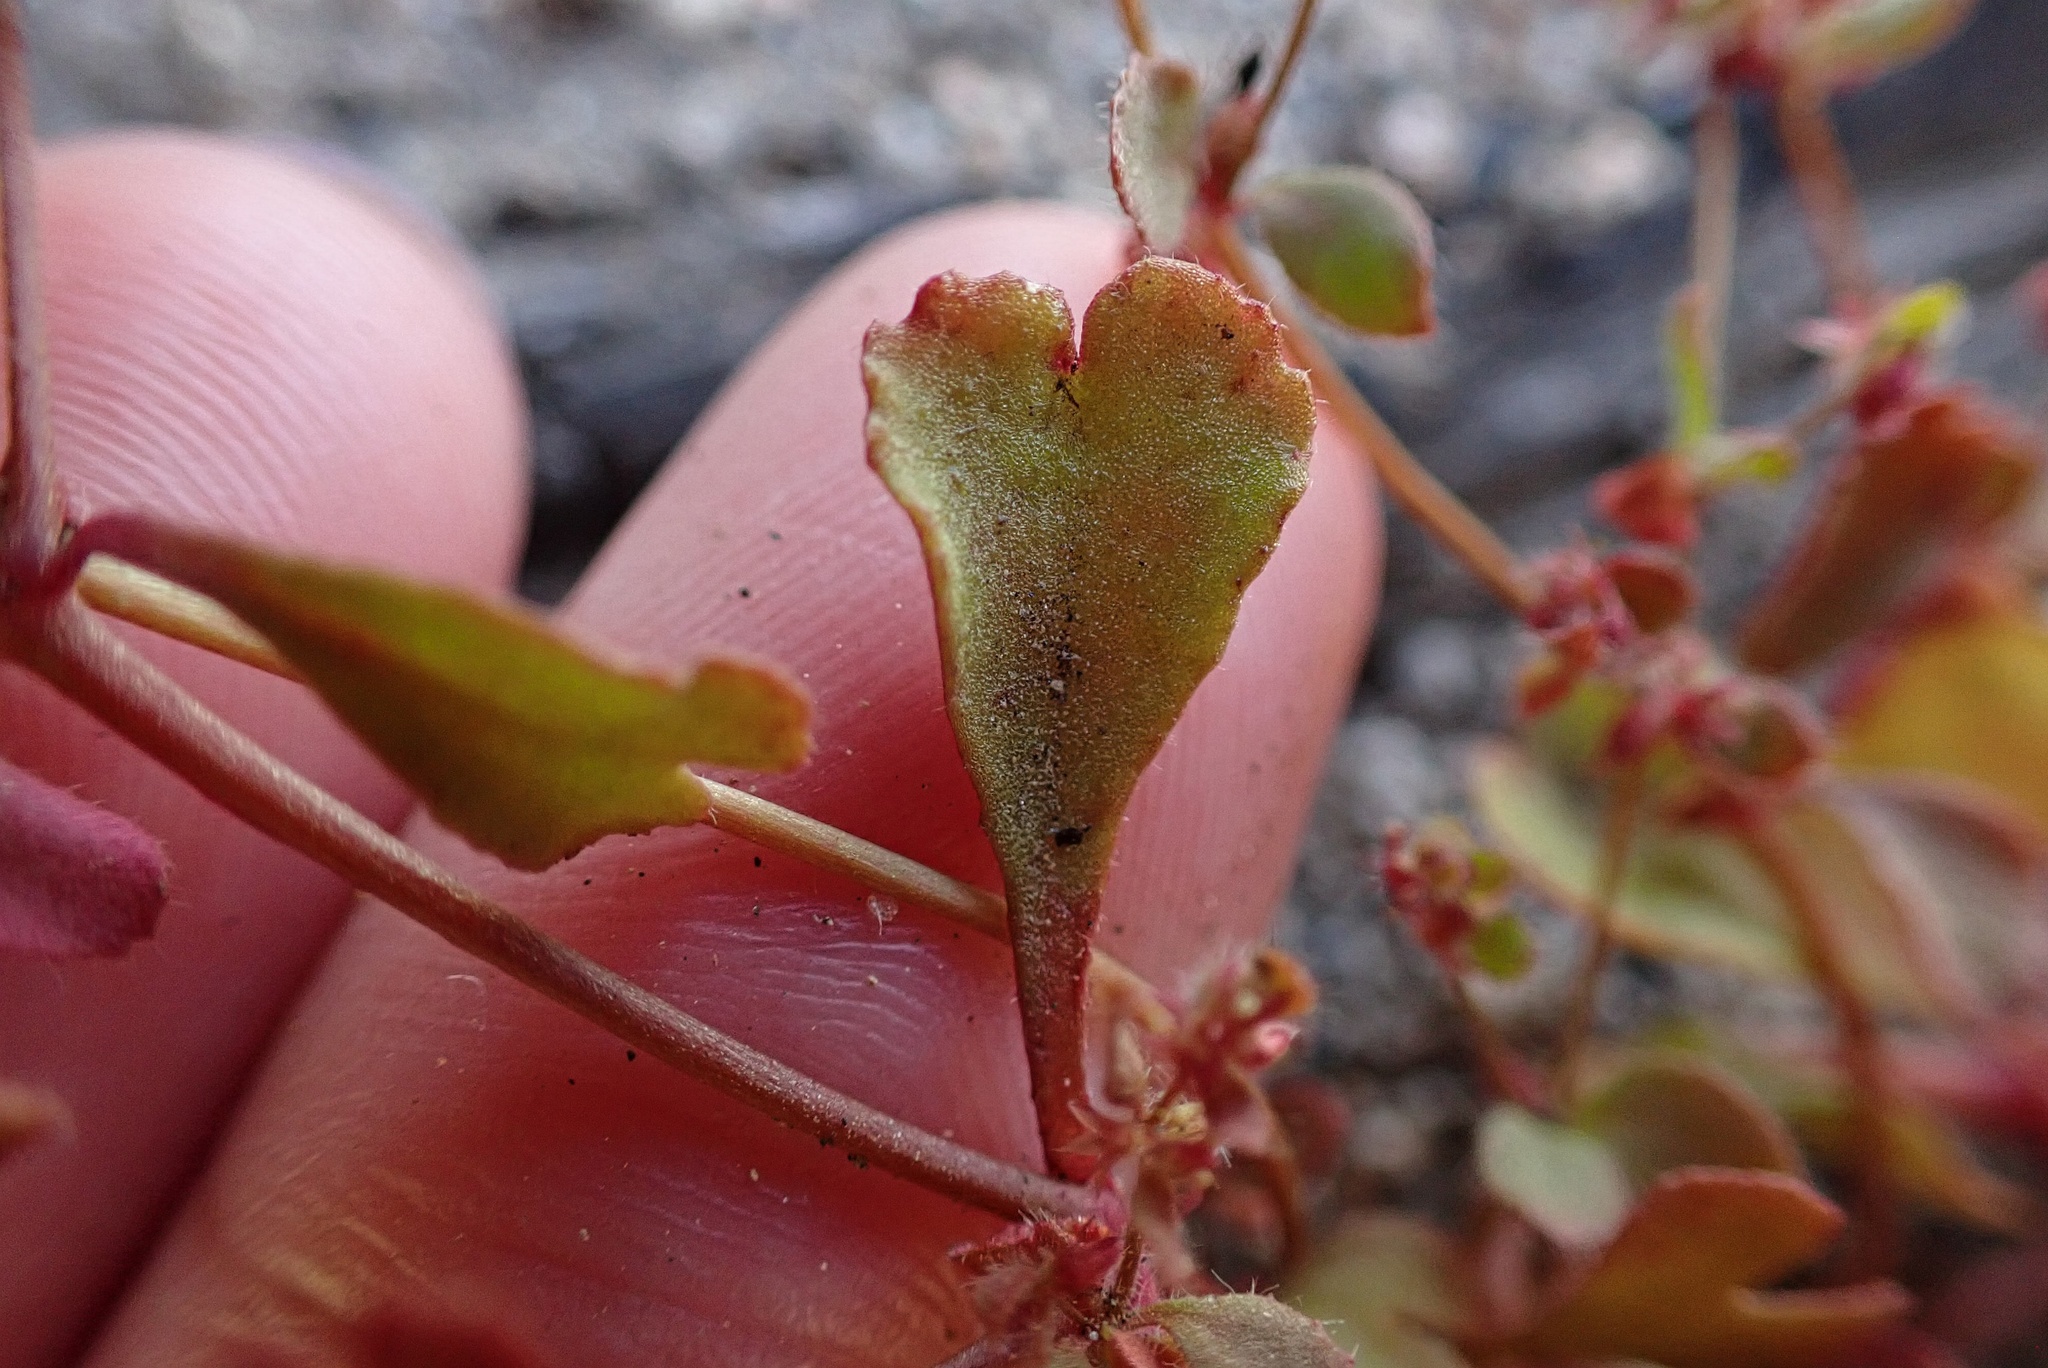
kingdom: Plantae
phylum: Tracheophyta
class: Magnoliopsida
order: Caryophyllales
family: Polygonaceae
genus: Pterostegia
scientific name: Pterostegia drymarioides
